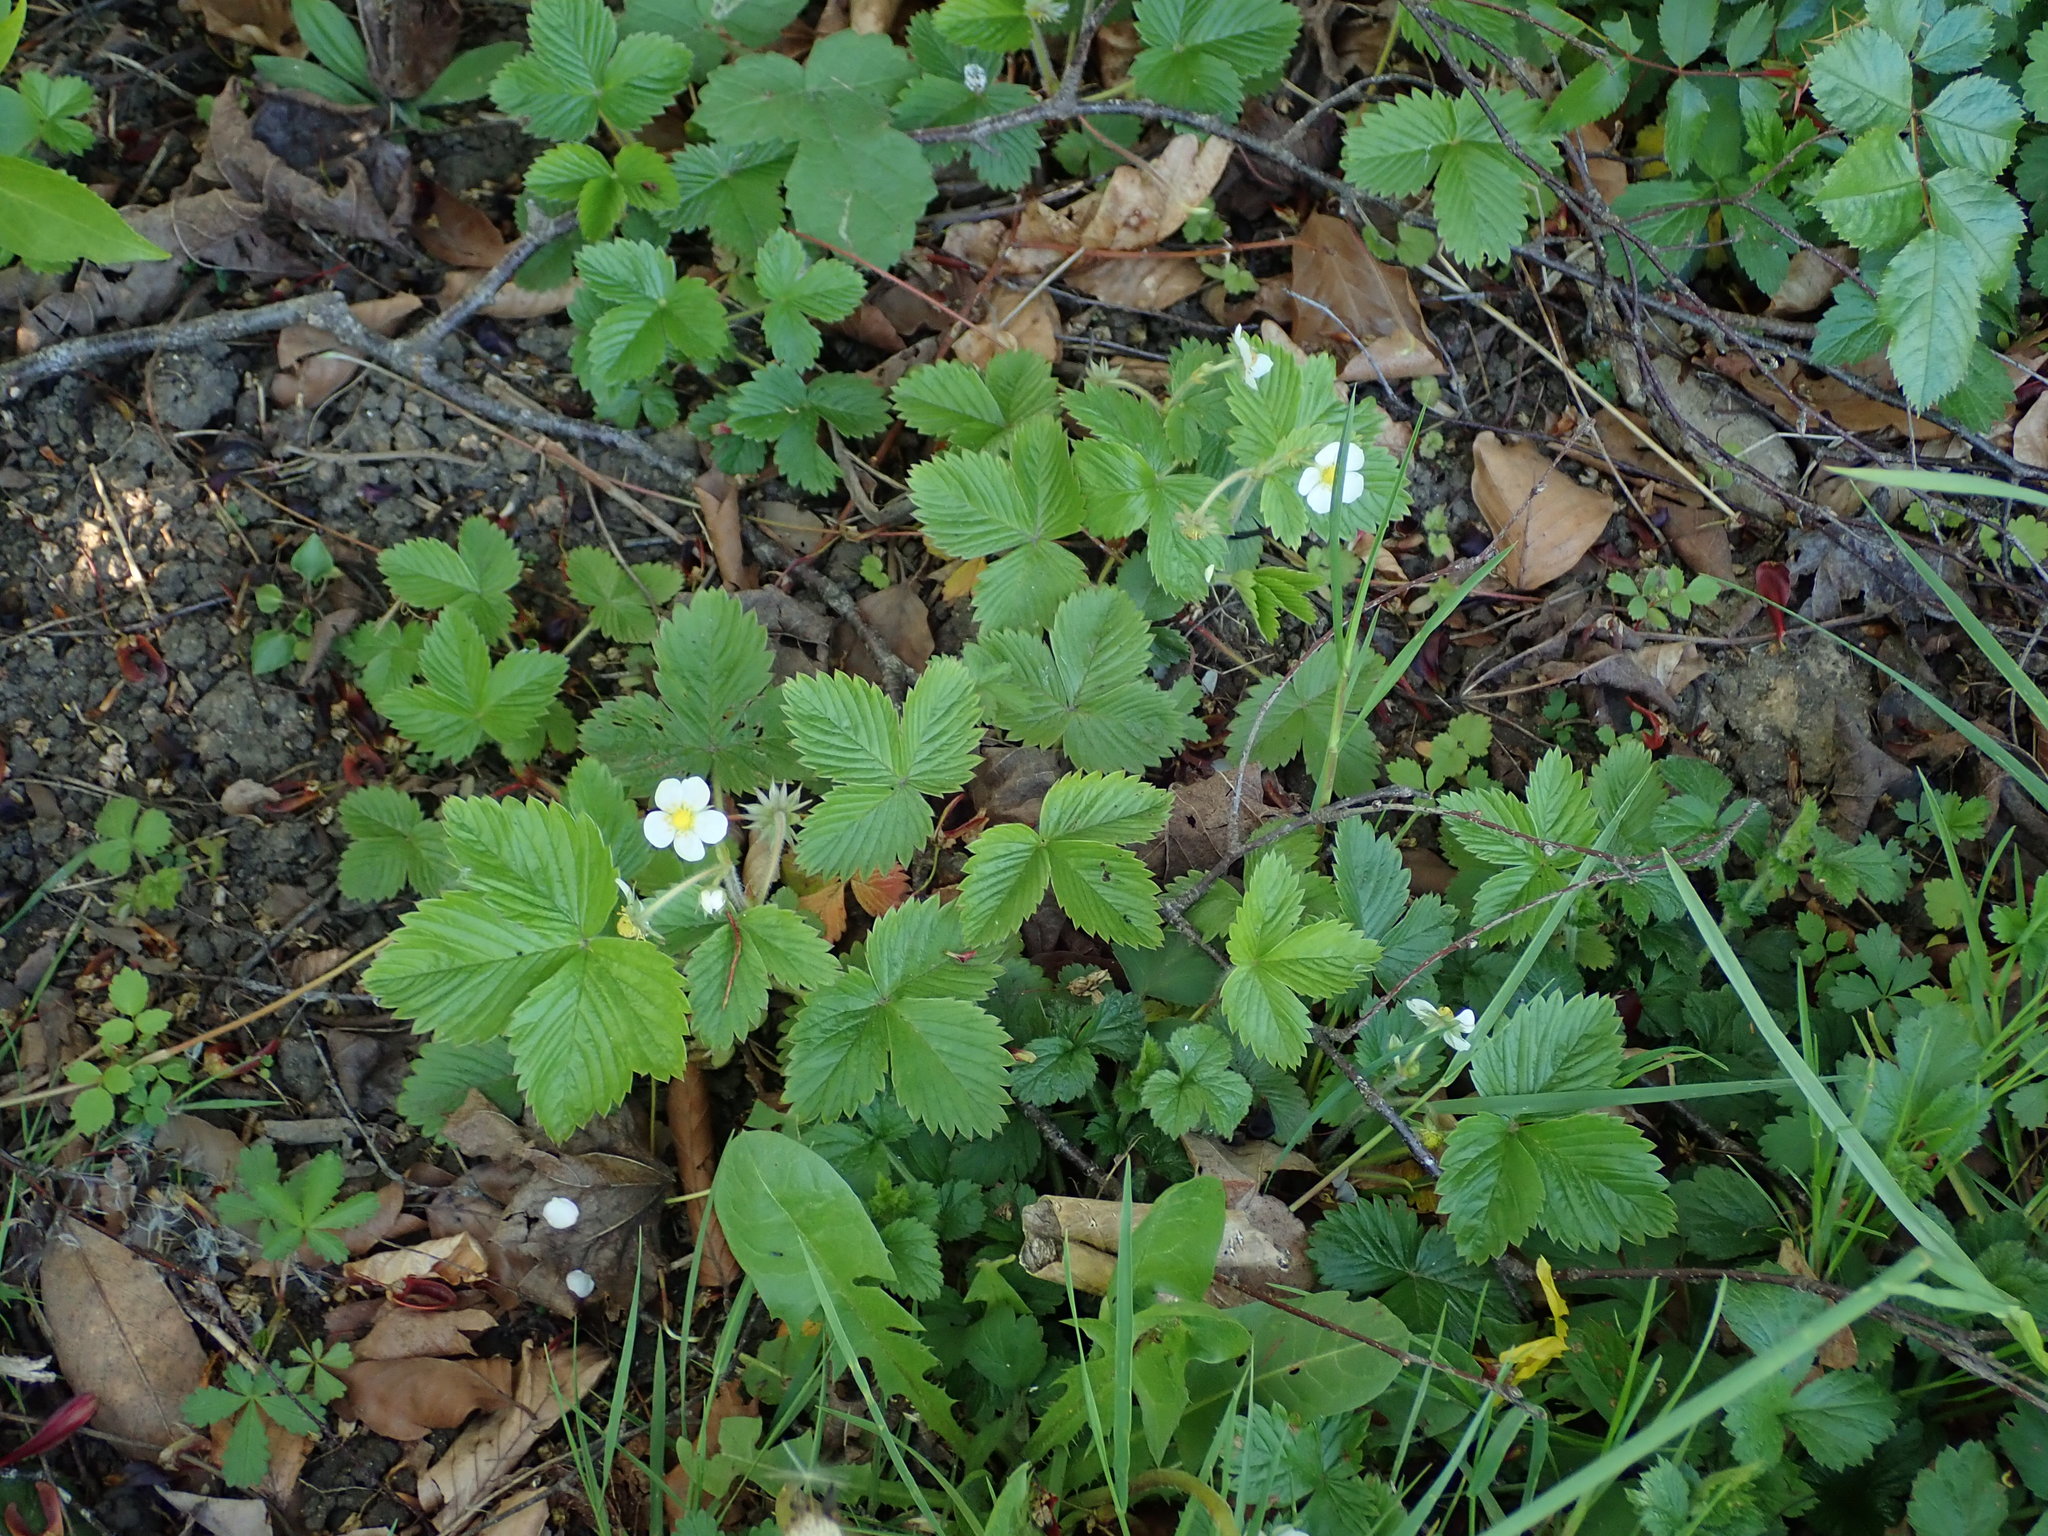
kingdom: Plantae
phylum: Tracheophyta
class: Magnoliopsida
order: Rosales
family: Rosaceae
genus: Fragaria
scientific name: Fragaria vesca
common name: Wild strawberry
